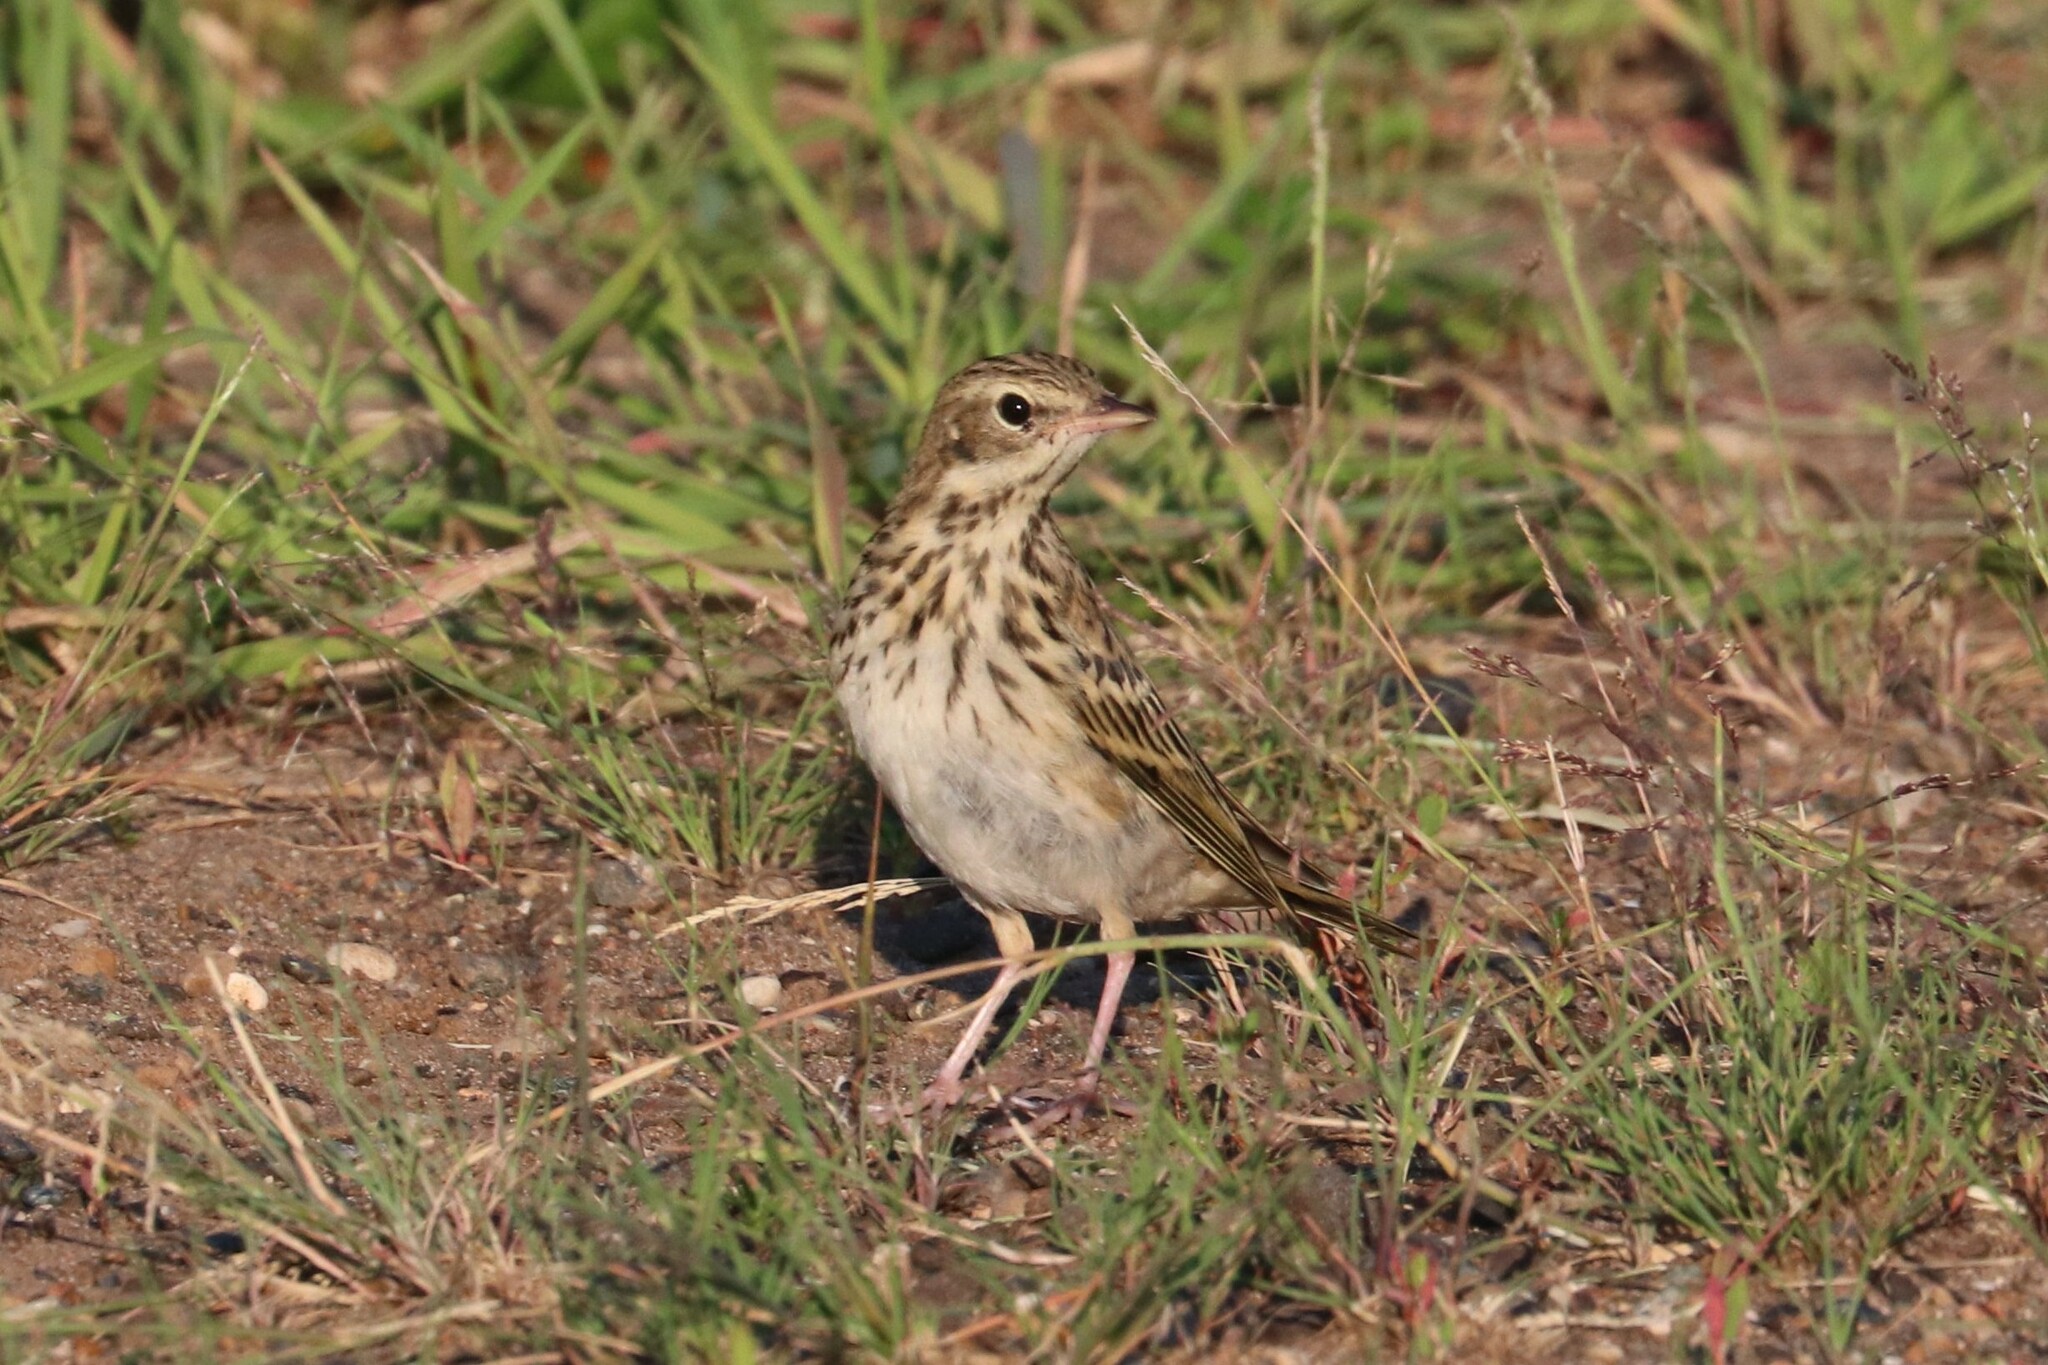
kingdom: Animalia
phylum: Chordata
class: Aves
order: Passeriformes
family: Motacillidae
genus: Anthus
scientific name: Anthus trivialis
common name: Tree pipit
